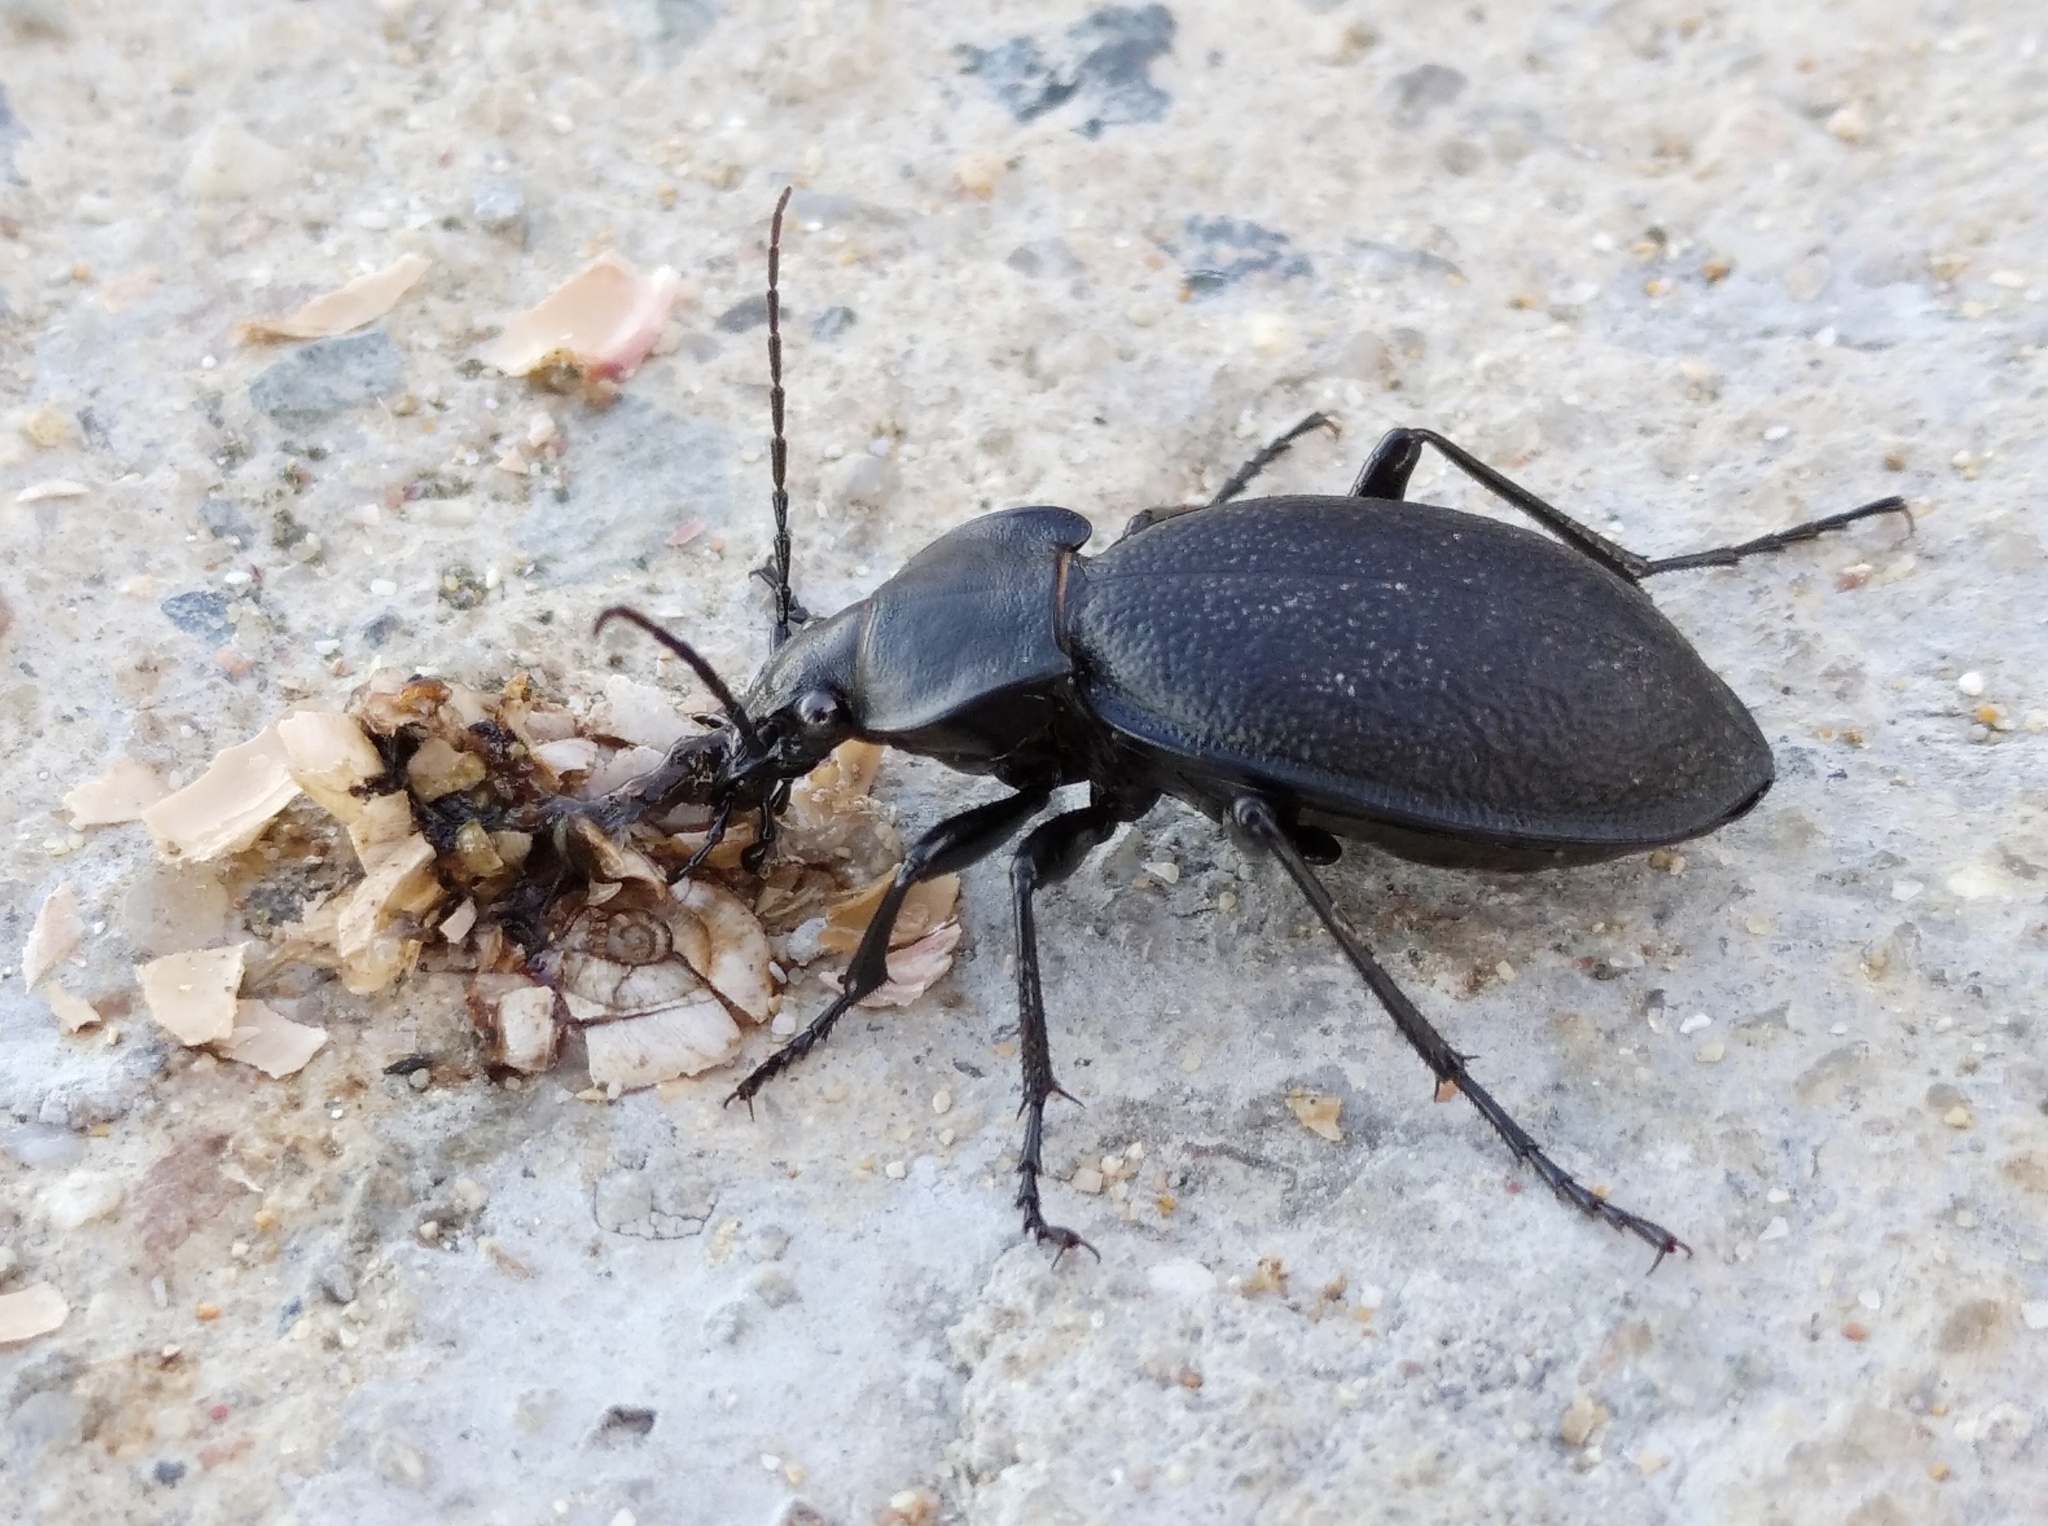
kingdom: Animalia
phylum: Arthropoda
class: Insecta
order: Coleoptera
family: Carabidae
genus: Carabus
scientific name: Carabus coriaceus
